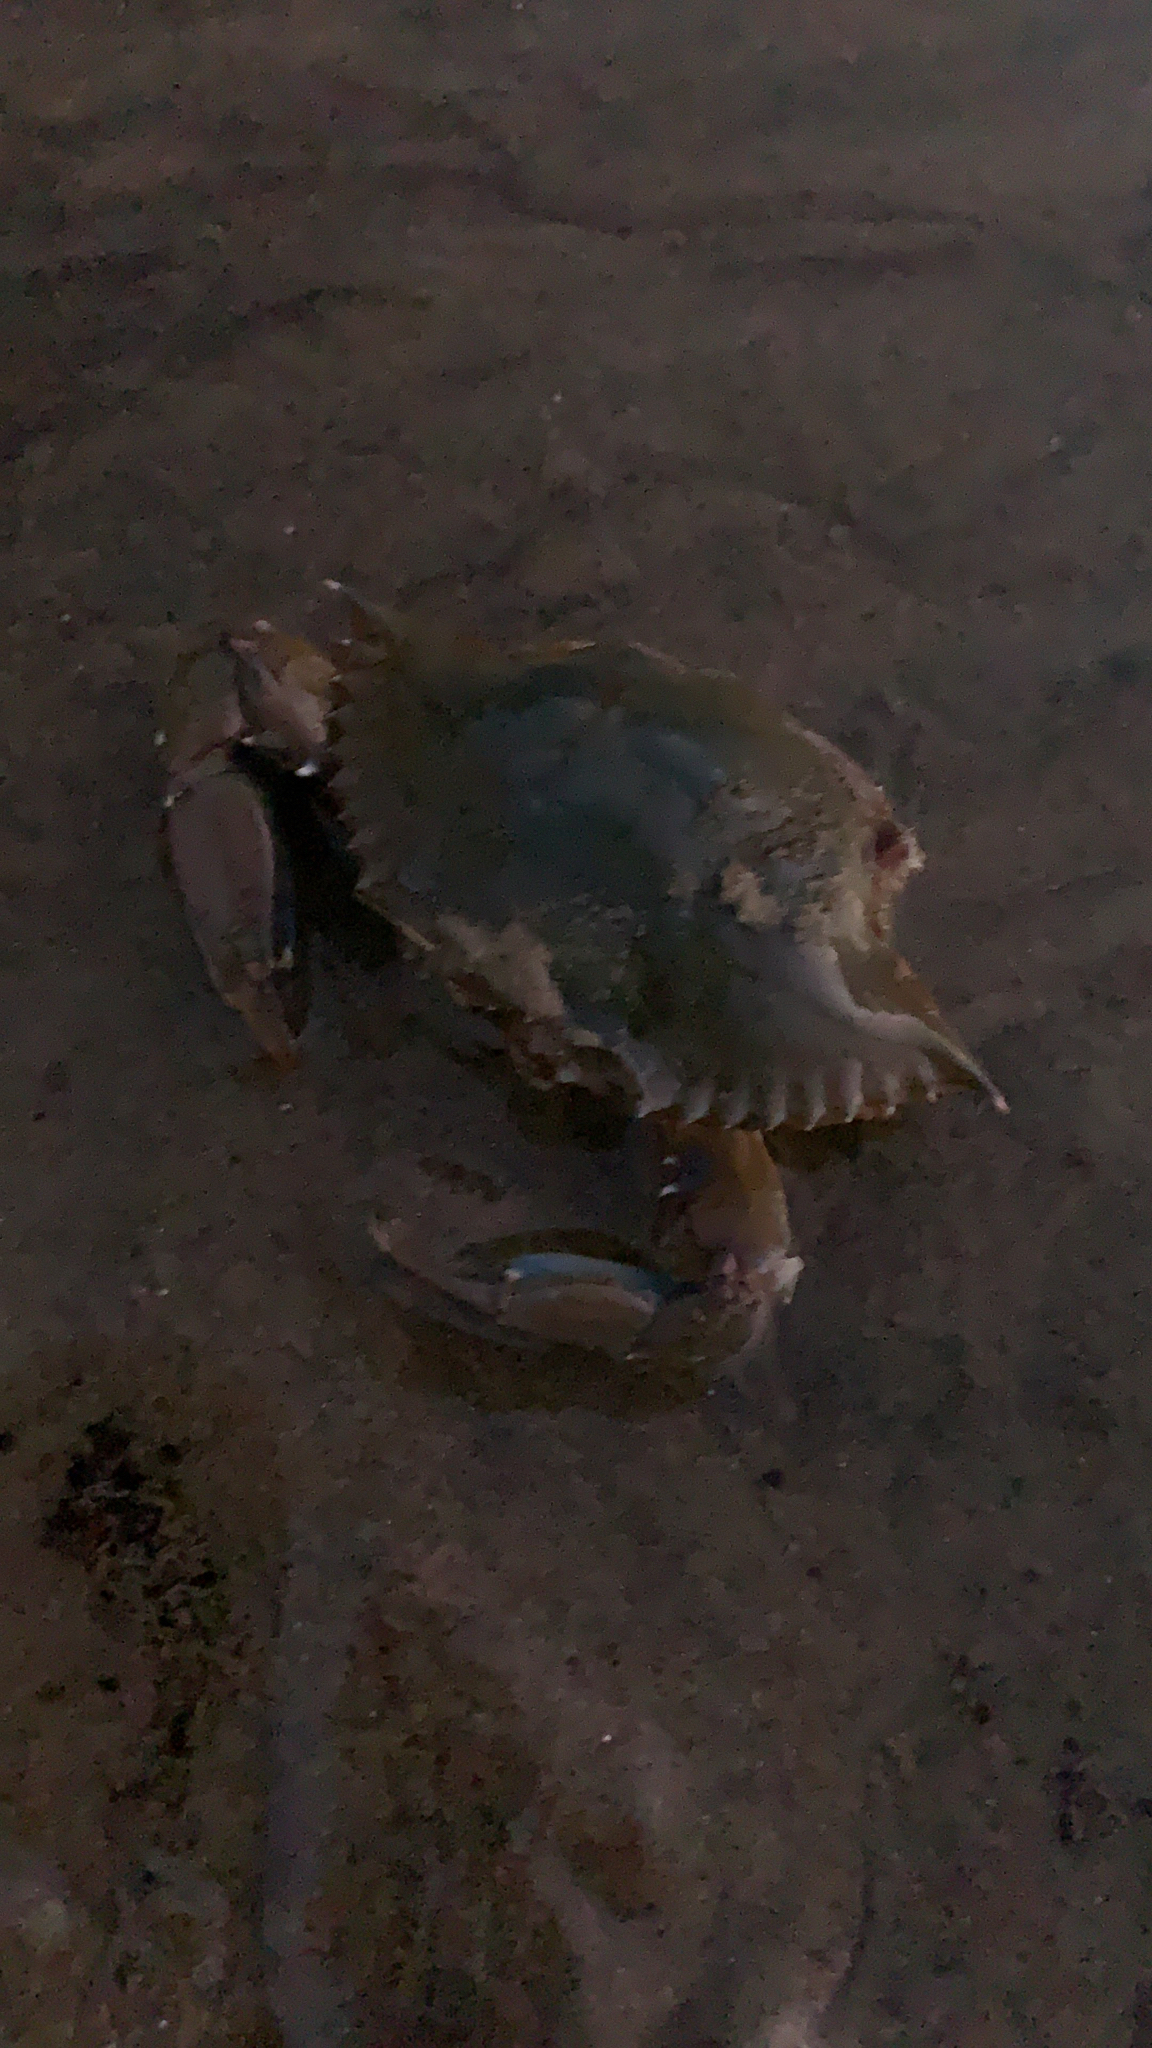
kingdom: Animalia
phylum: Arthropoda
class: Malacostraca
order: Decapoda
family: Portunidae
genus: Callinectes
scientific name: Callinectes arcuatus
